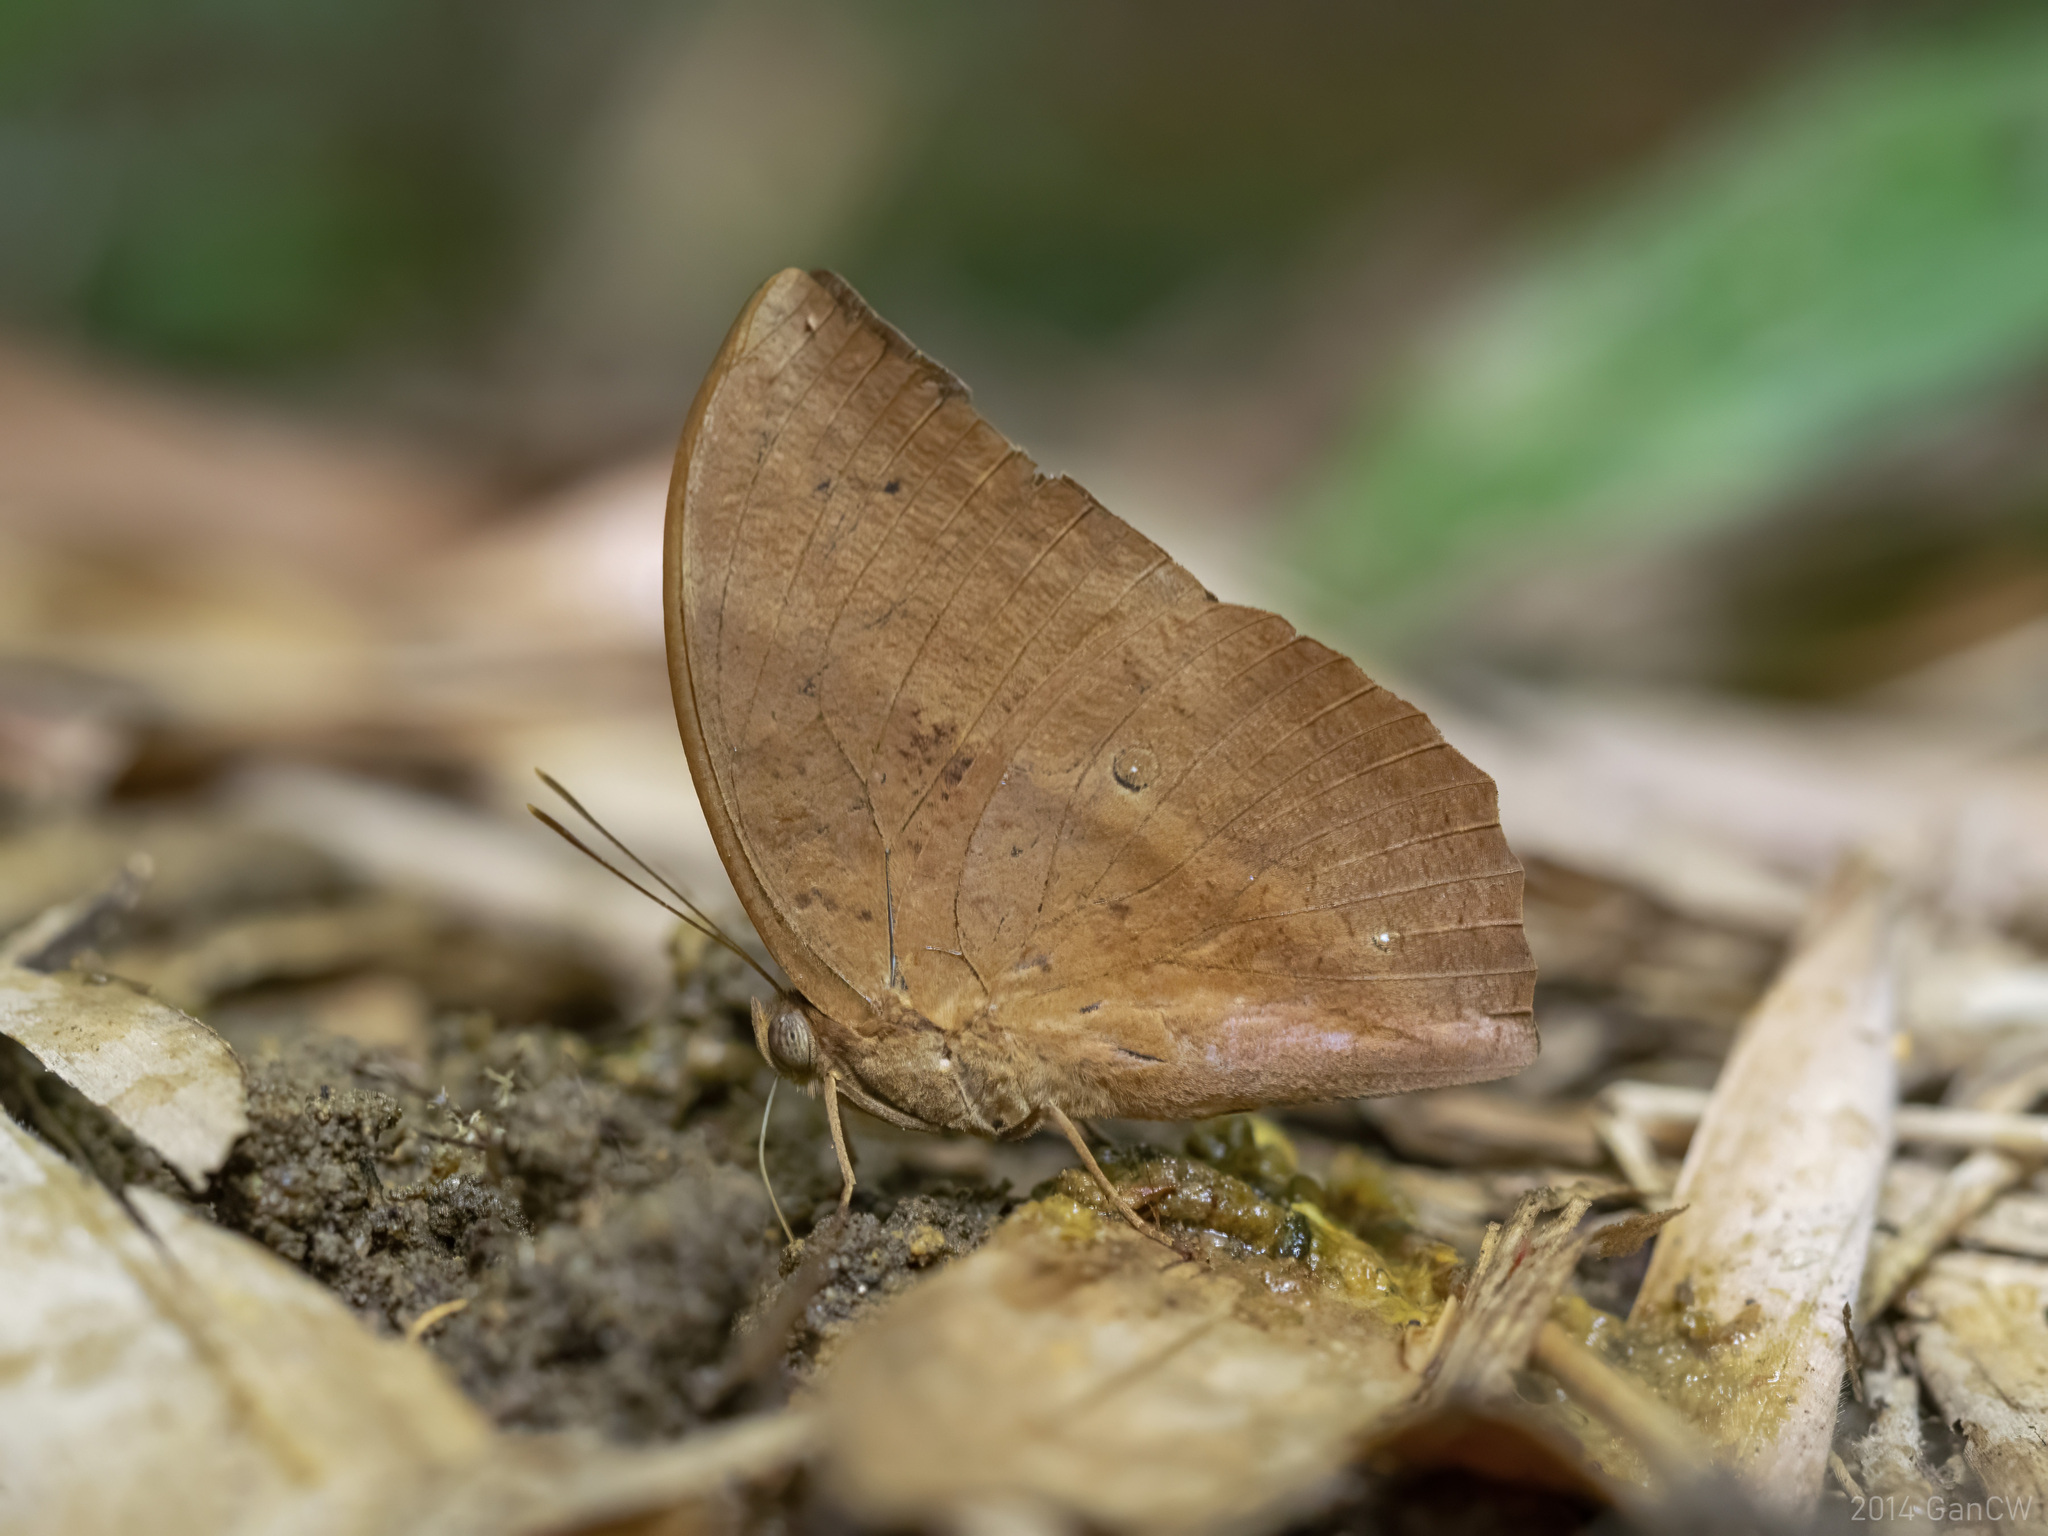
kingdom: Animalia
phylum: Arthropoda
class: Insecta
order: Lepidoptera
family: Nymphalidae
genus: Discophora
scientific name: Discophora sondaica
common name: Common duffer
